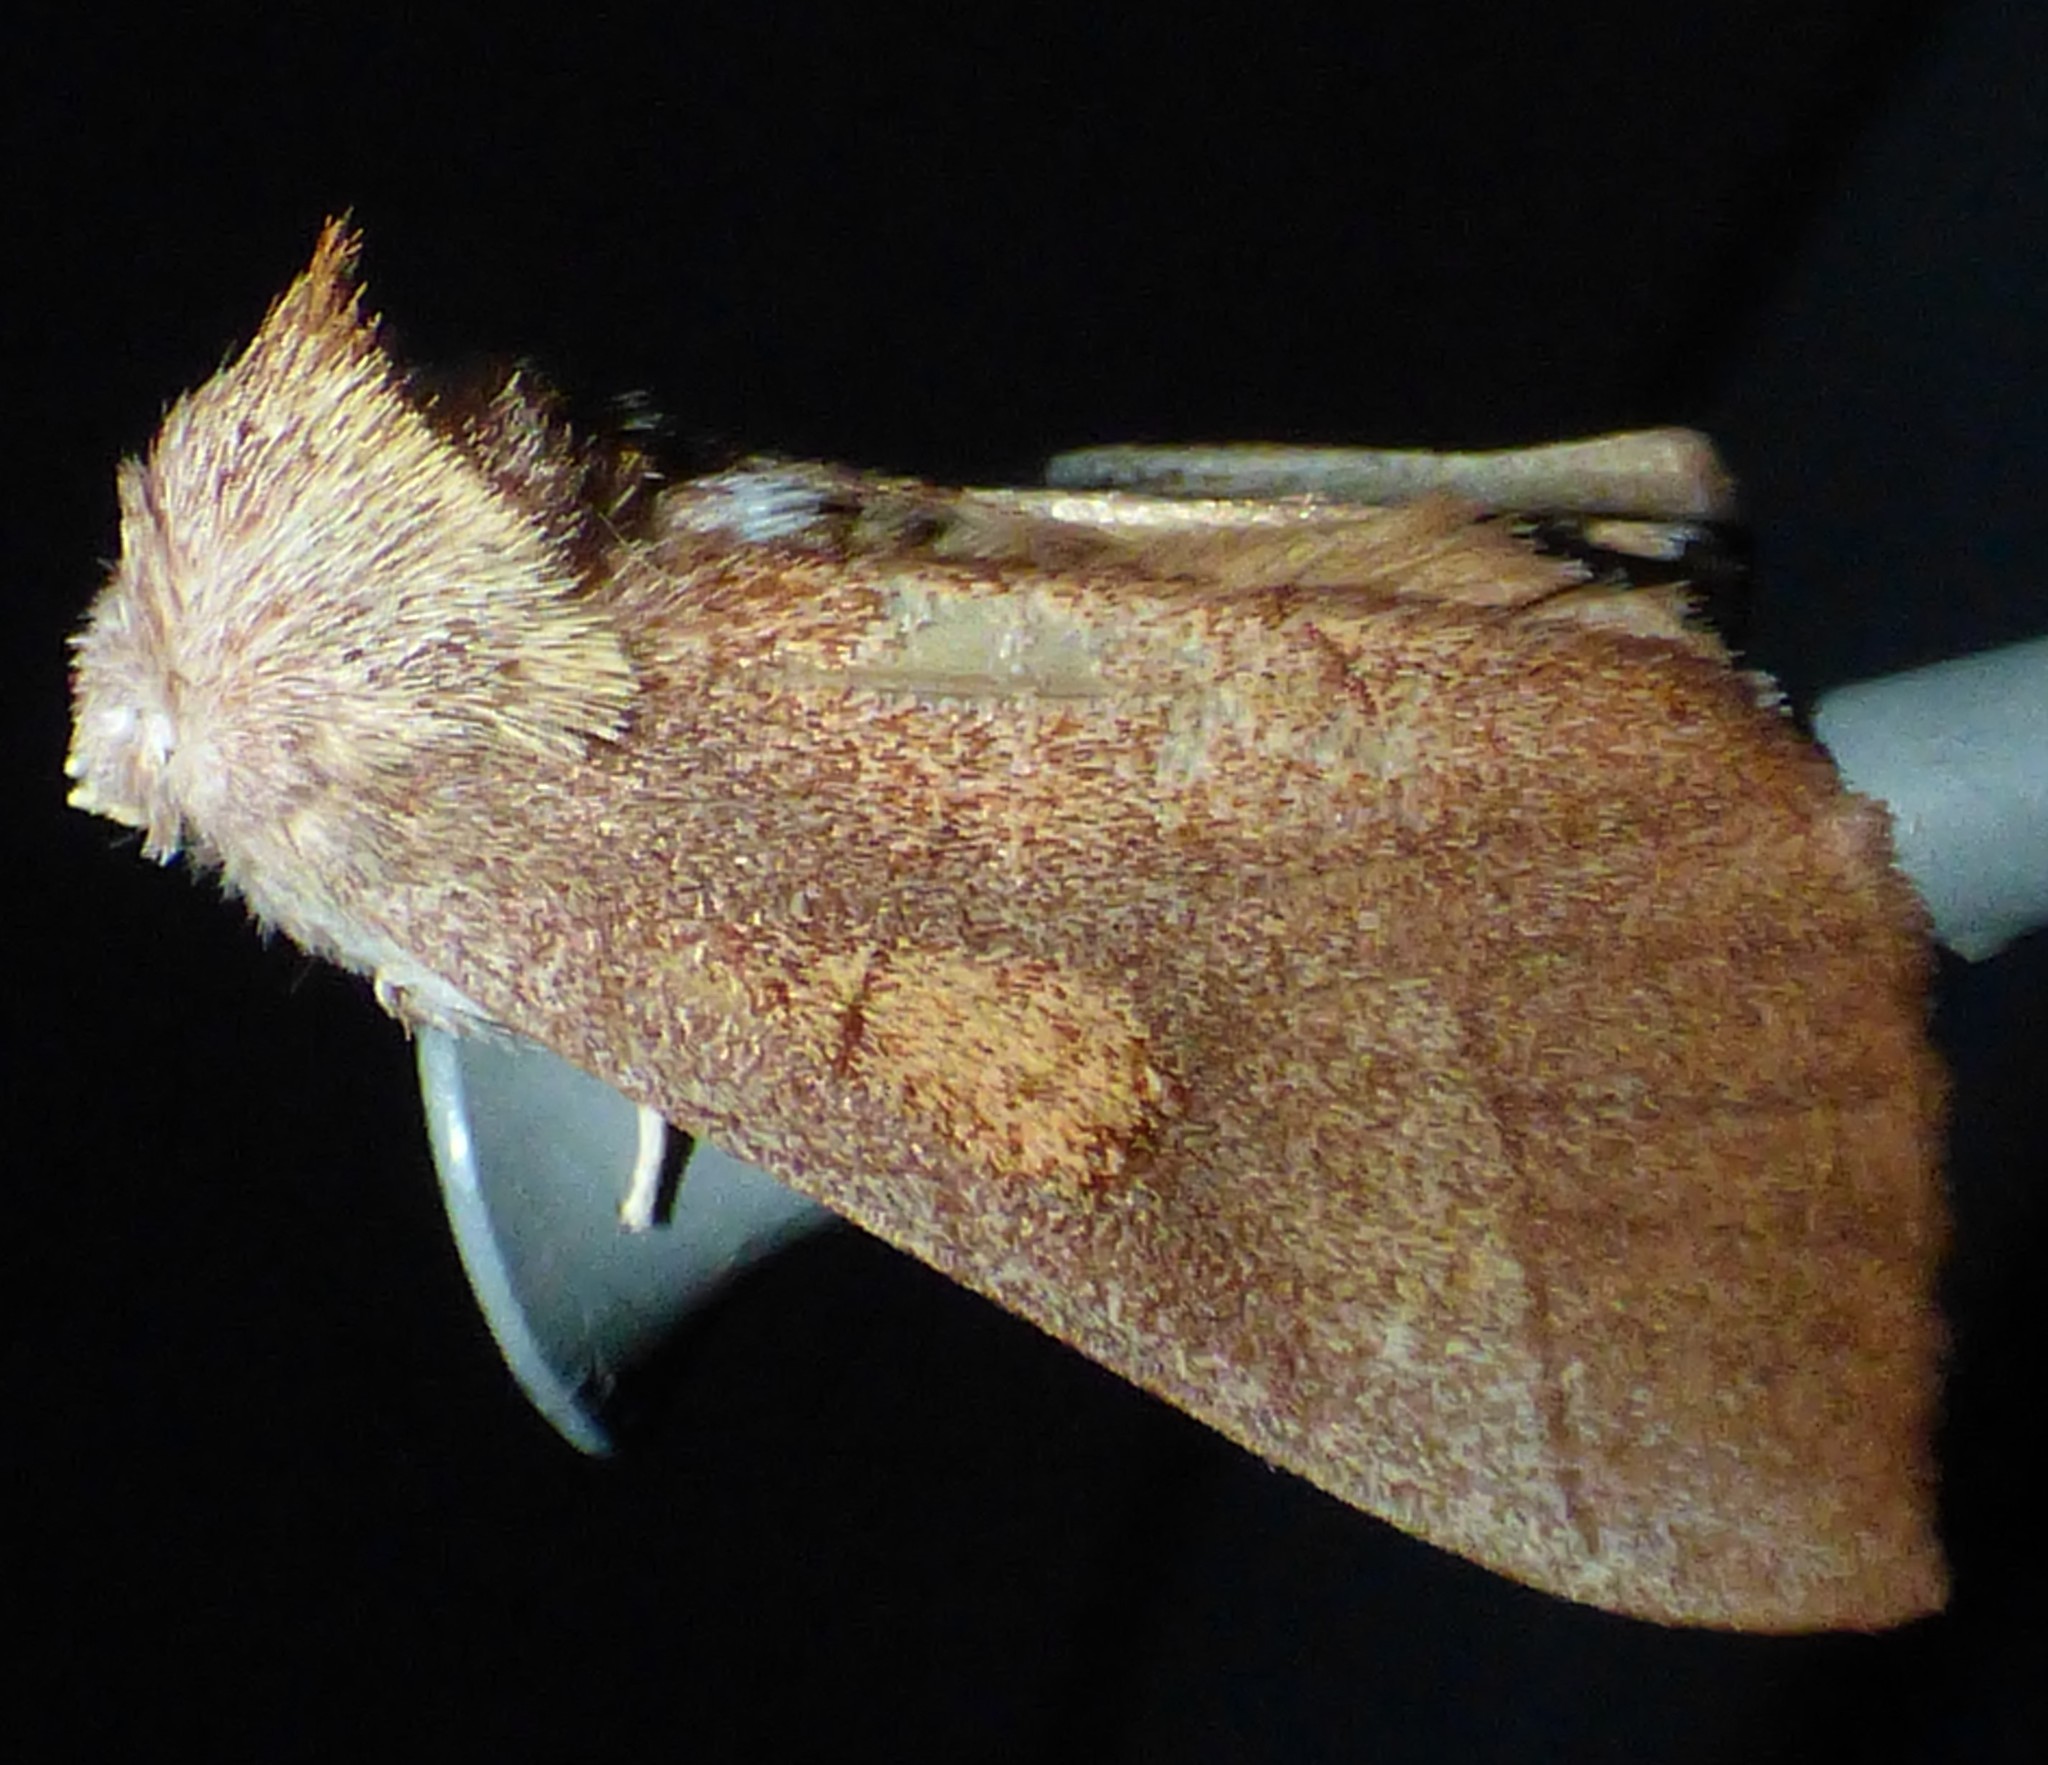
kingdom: Animalia
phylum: Arthropoda
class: Insecta
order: Lepidoptera
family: Notodontidae
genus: Nadata
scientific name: Nadata gibbosa
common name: White-dotted prominent
